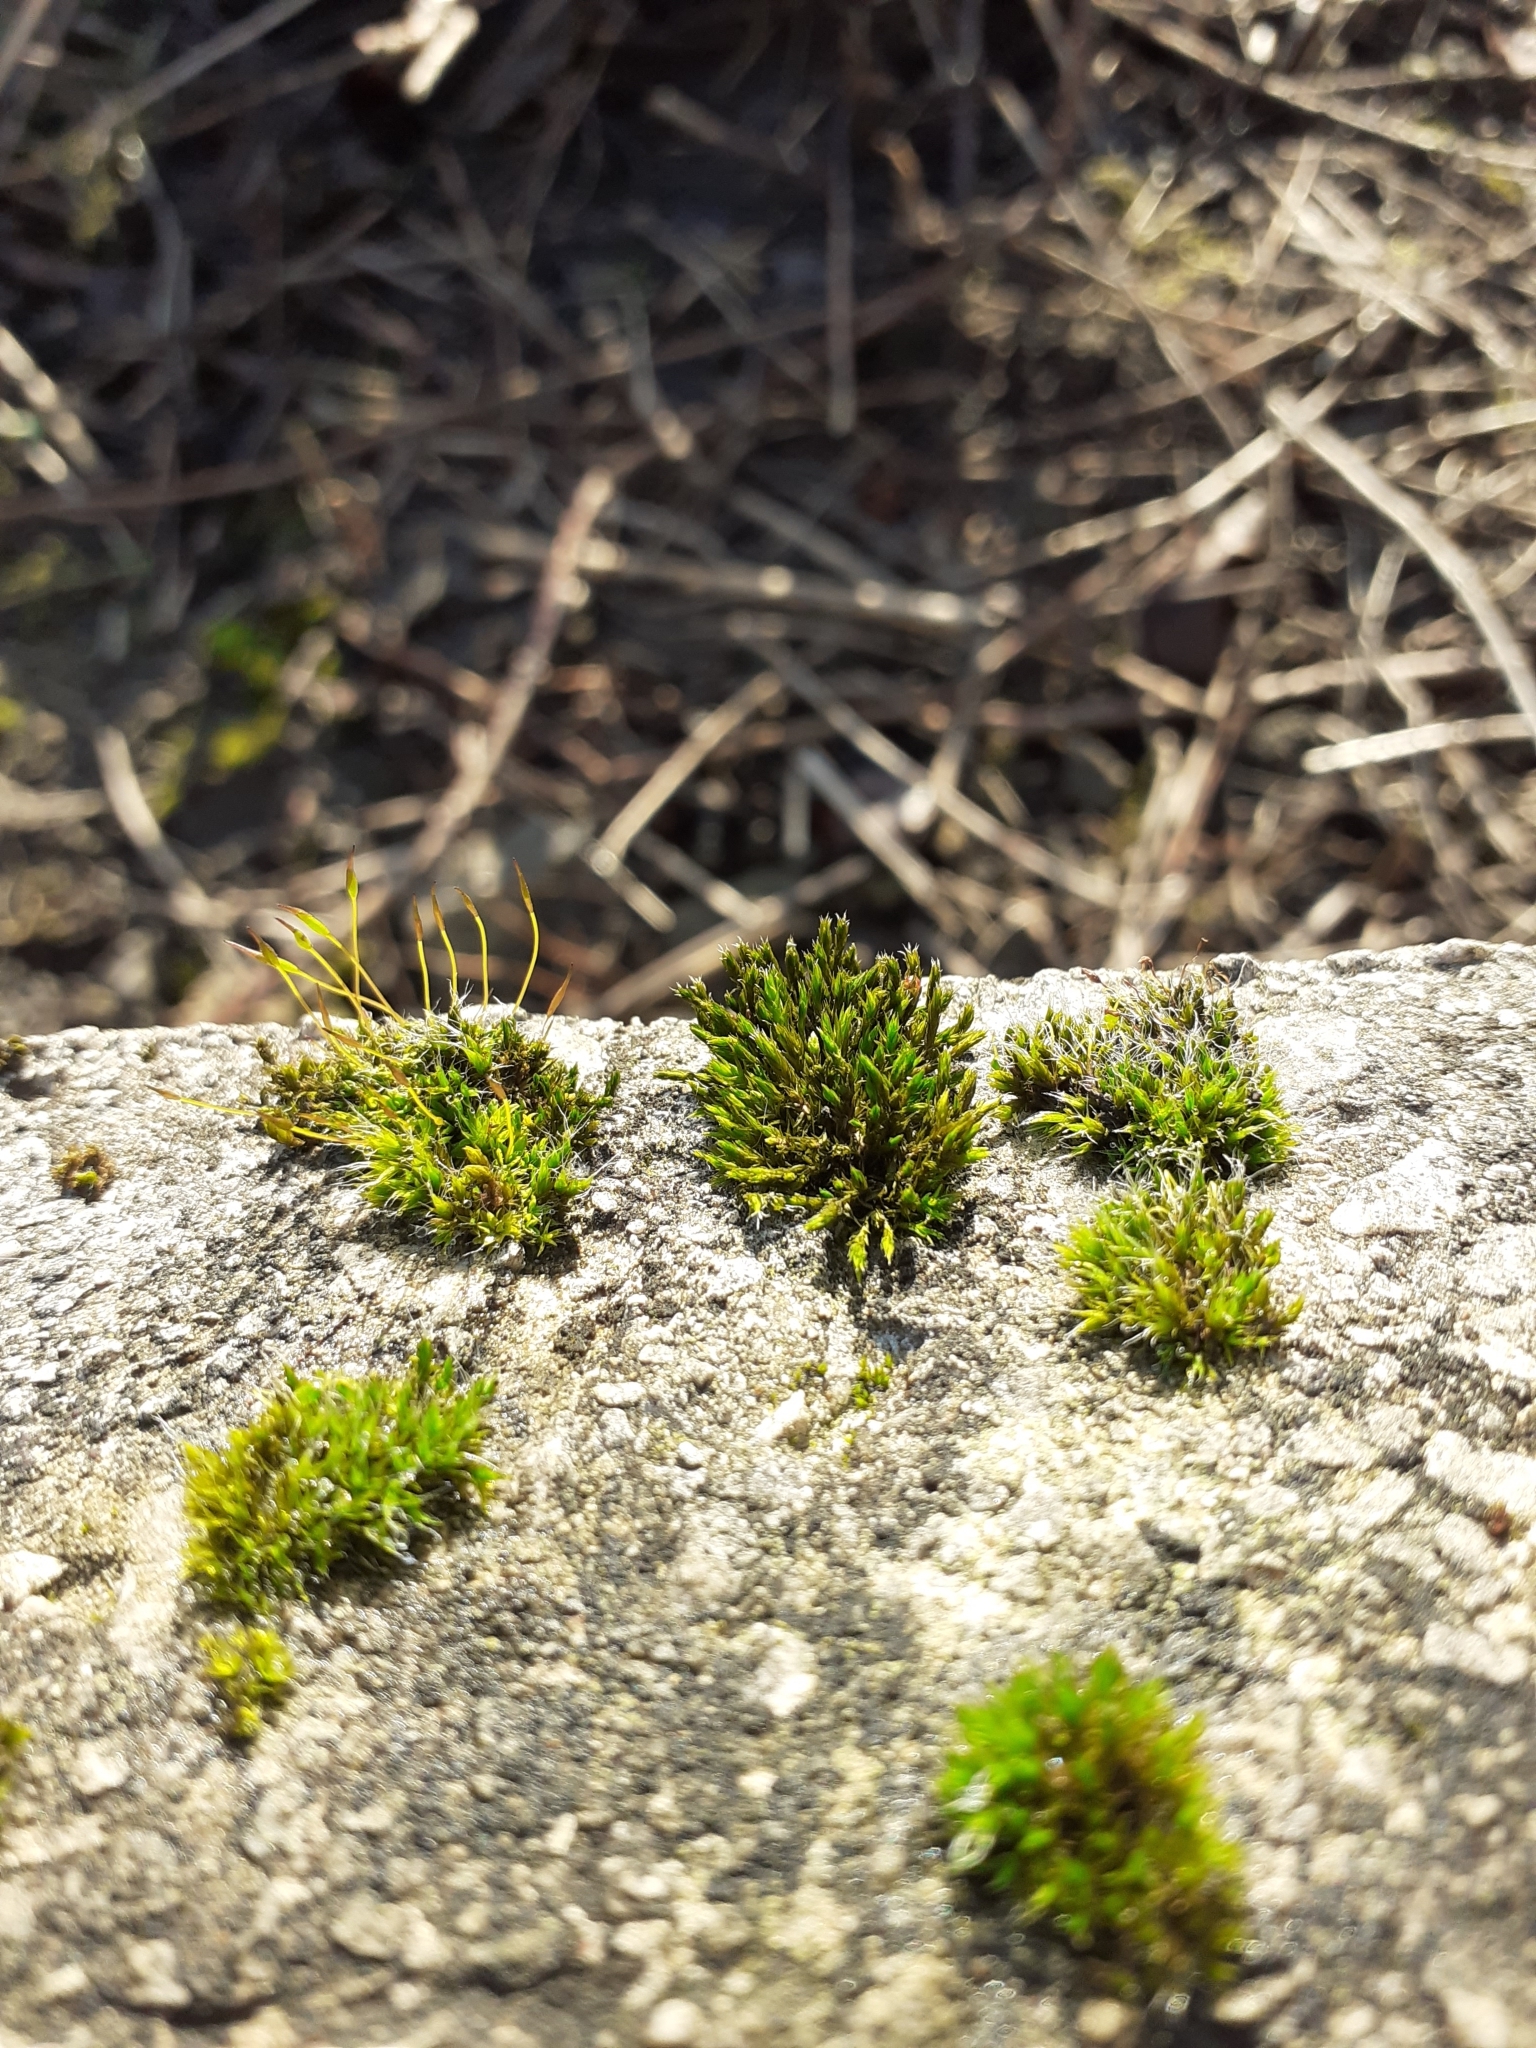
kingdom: Plantae
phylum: Bryophyta
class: Bryopsida
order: Pottiales
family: Pottiaceae
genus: Tortula
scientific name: Tortula muralis
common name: Wall screw-moss
